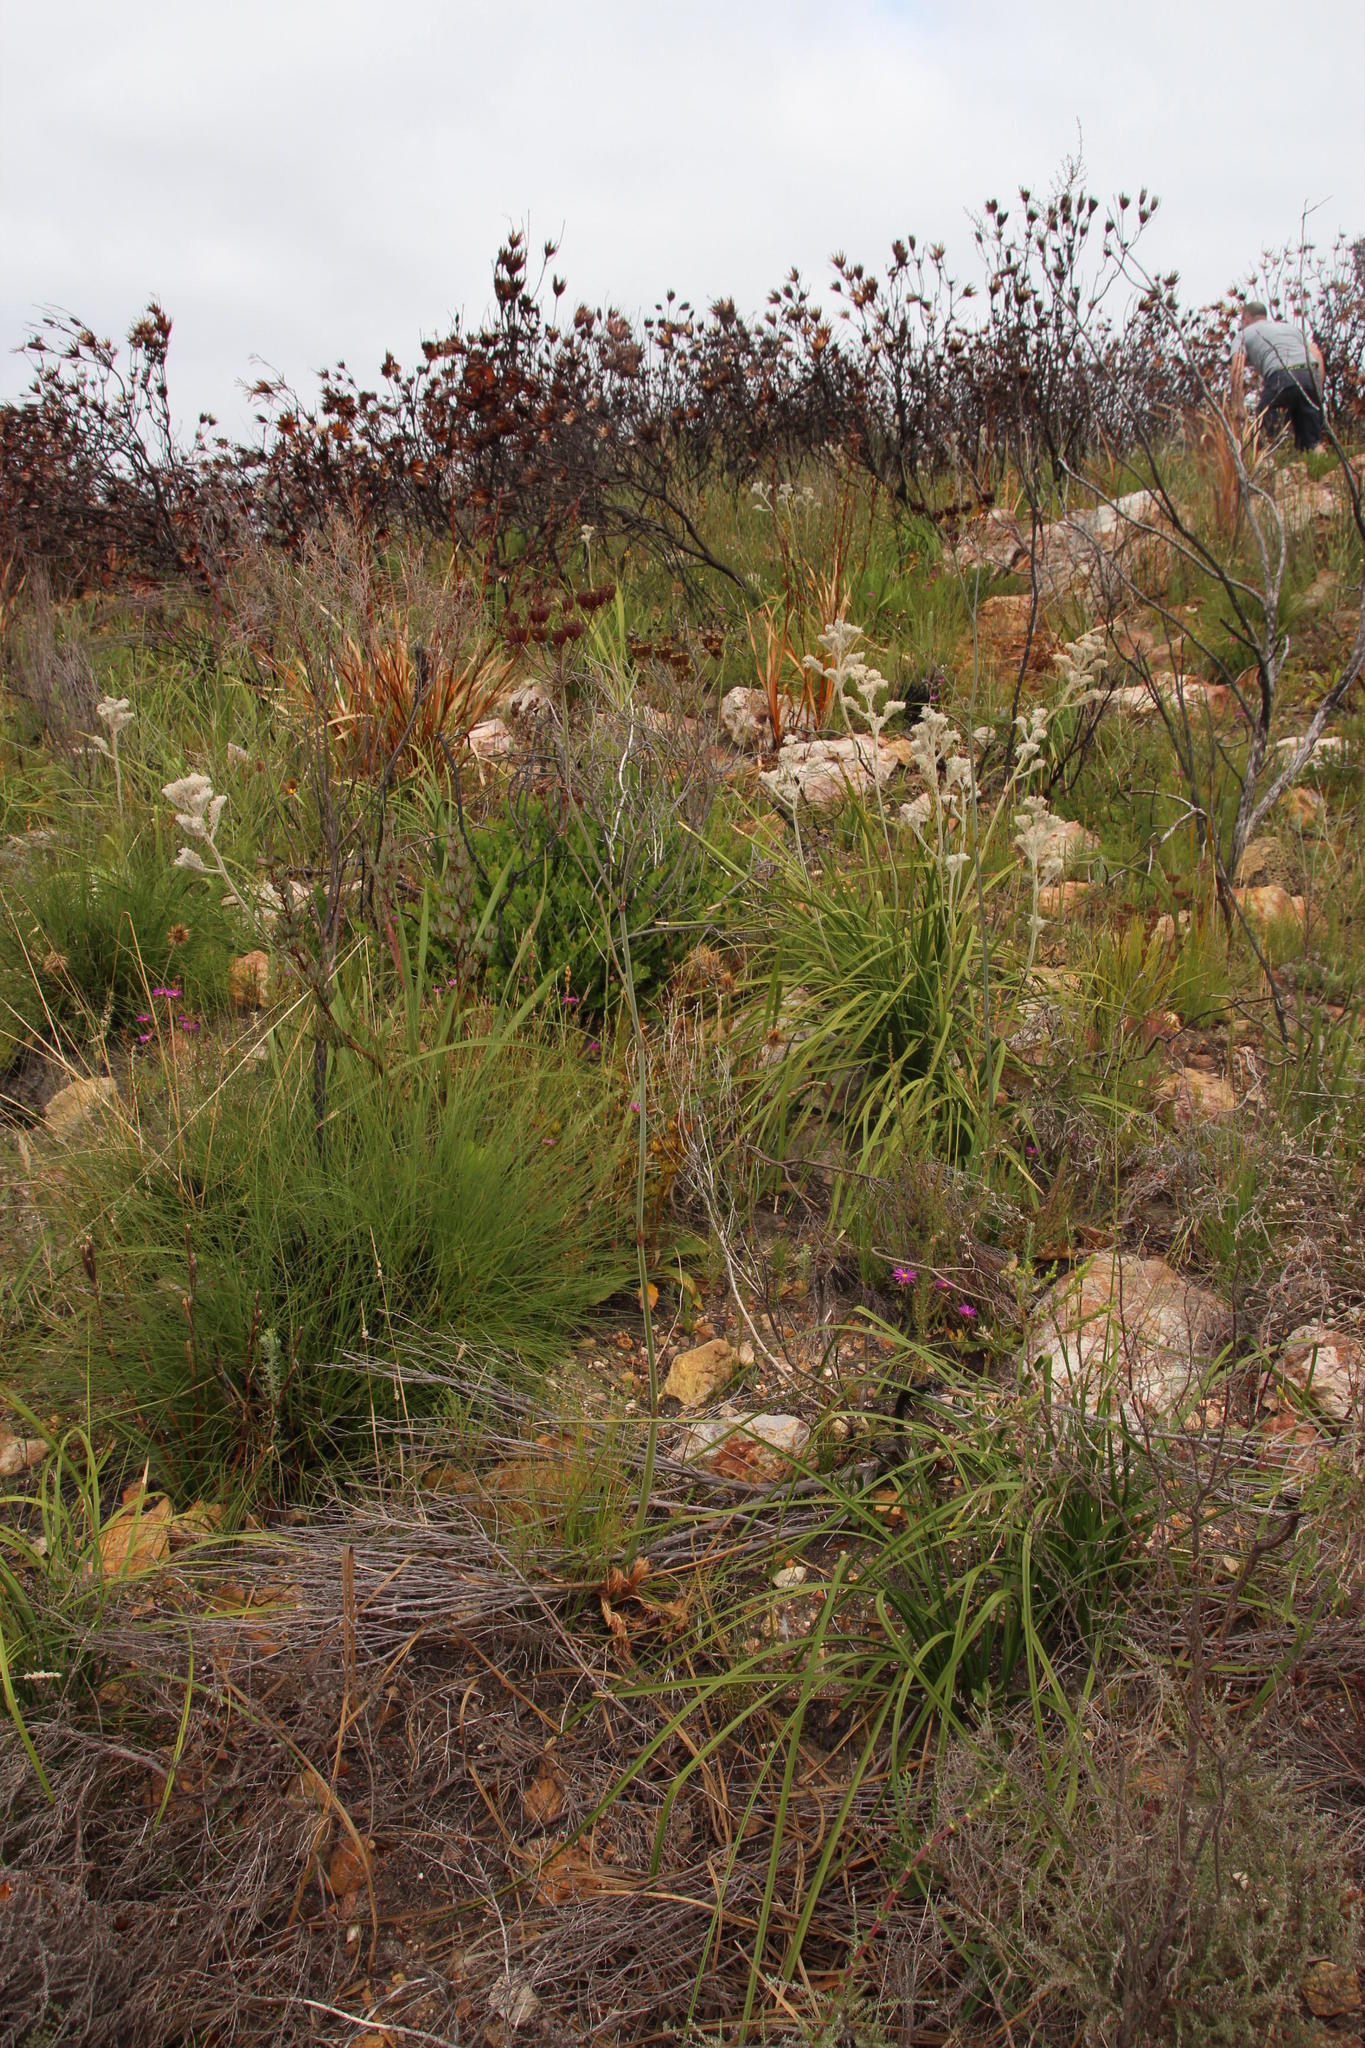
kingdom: Plantae
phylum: Tracheophyta
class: Magnoliopsida
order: Apiales
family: Apiaceae
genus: Lichtensteinia
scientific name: Lichtensteinia trifida
